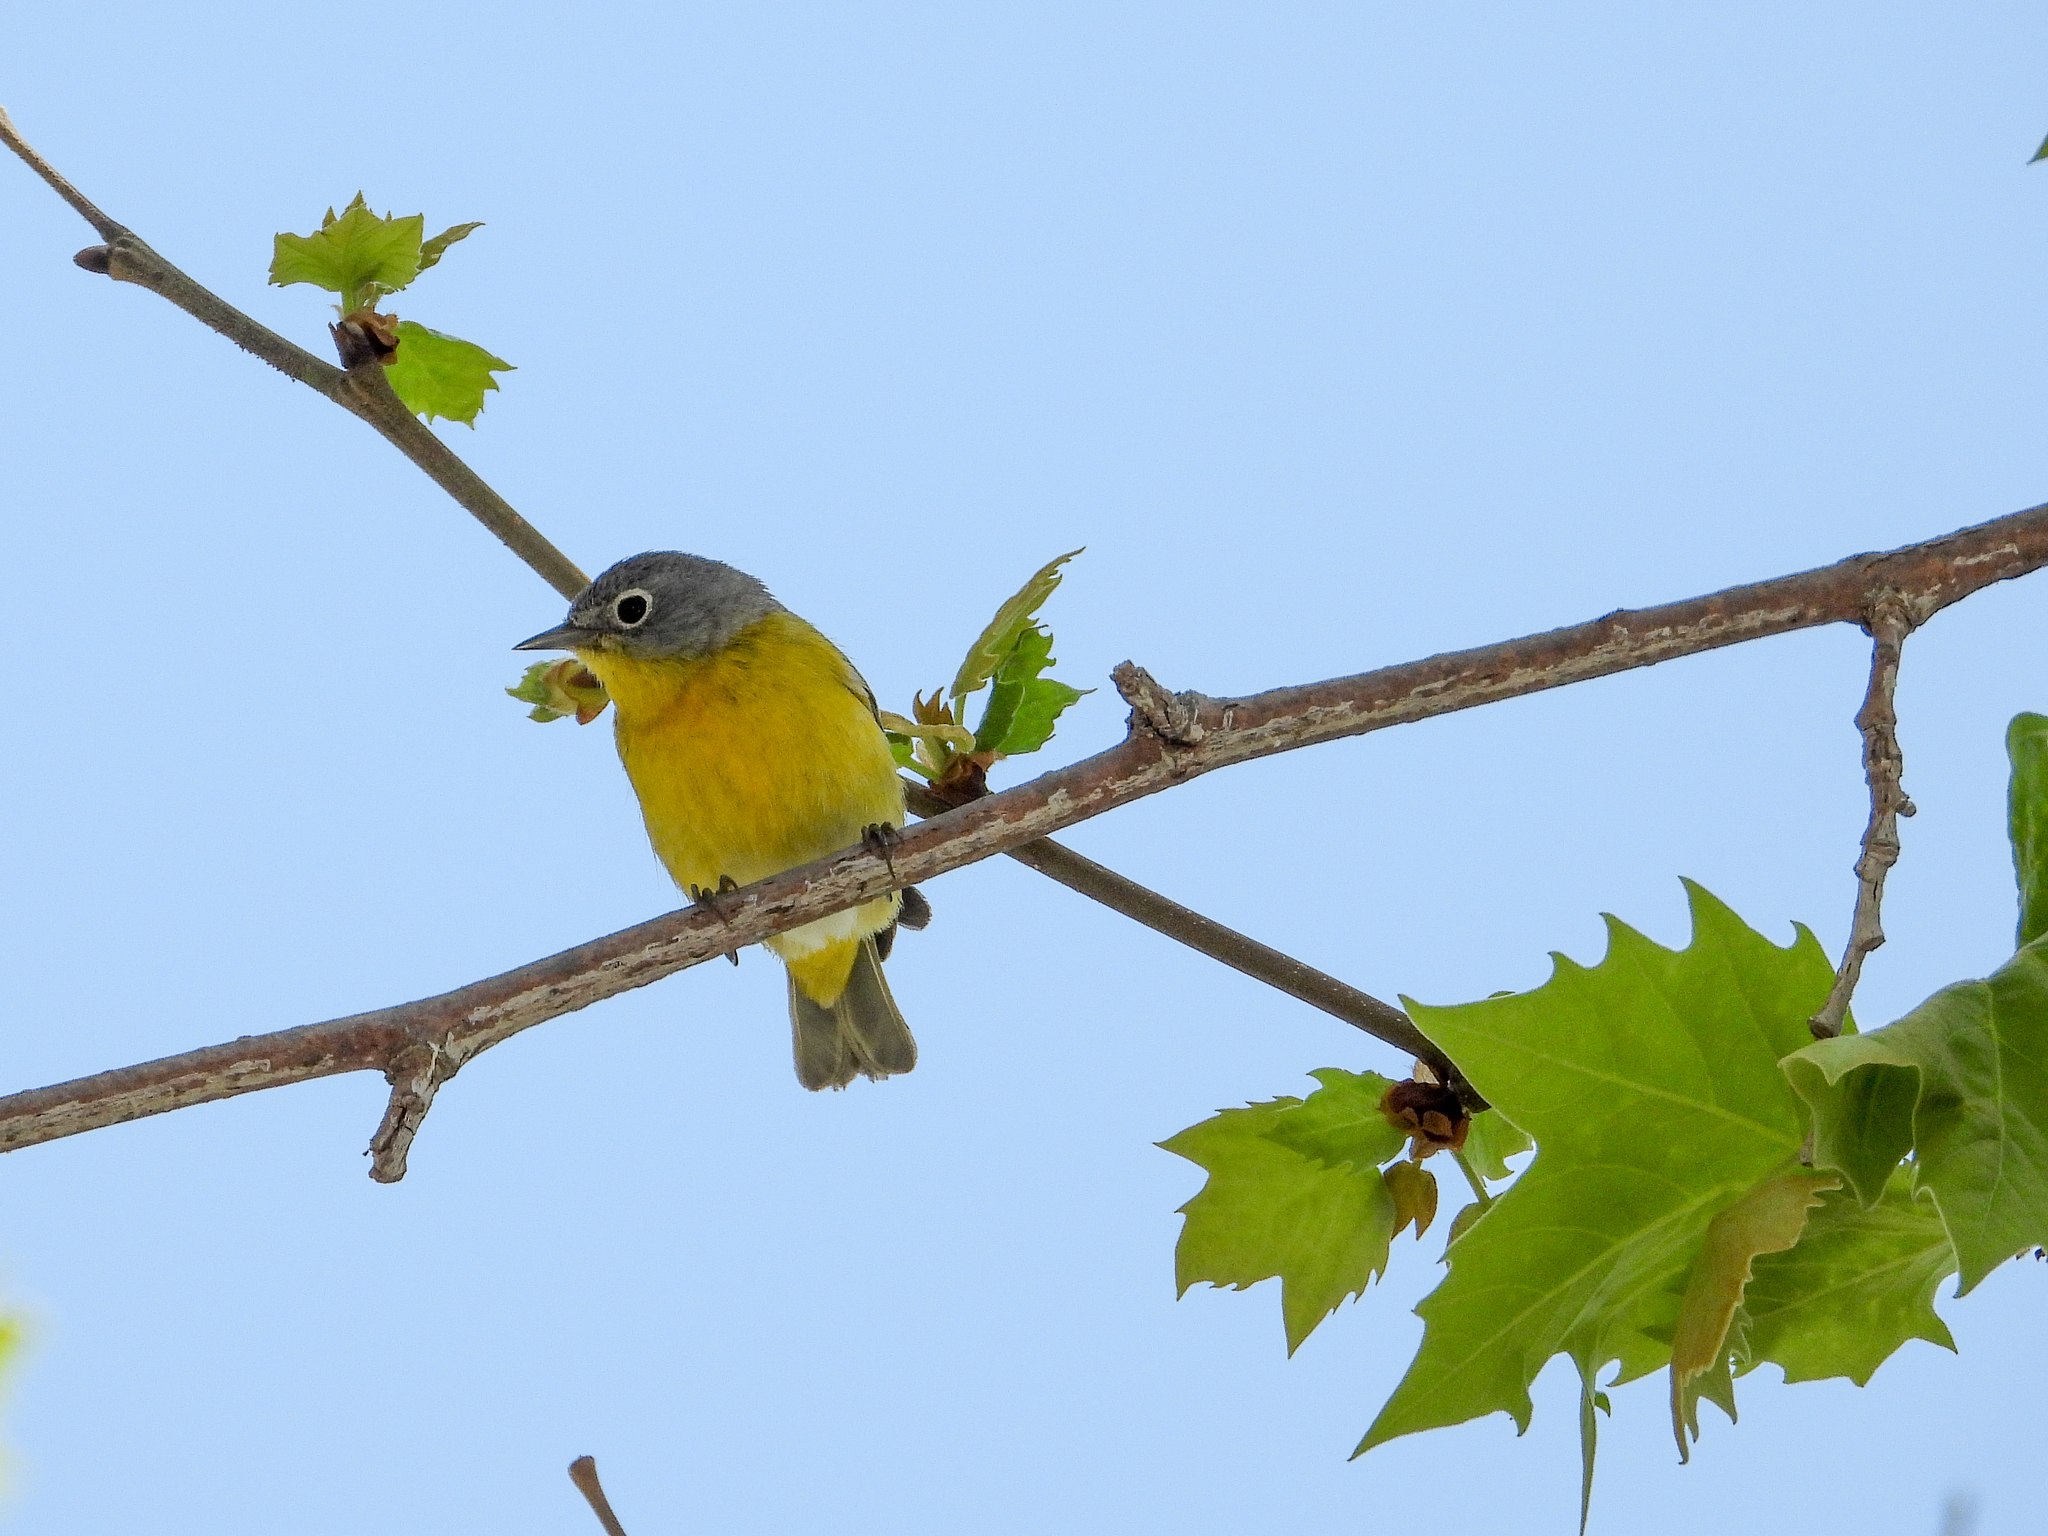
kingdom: Animalia
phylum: Chordata
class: Aves
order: Passeriformes
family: Parulidae
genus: Leiothlypis
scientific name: Leiothlypis ruficapilla
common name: Nashville warbler
